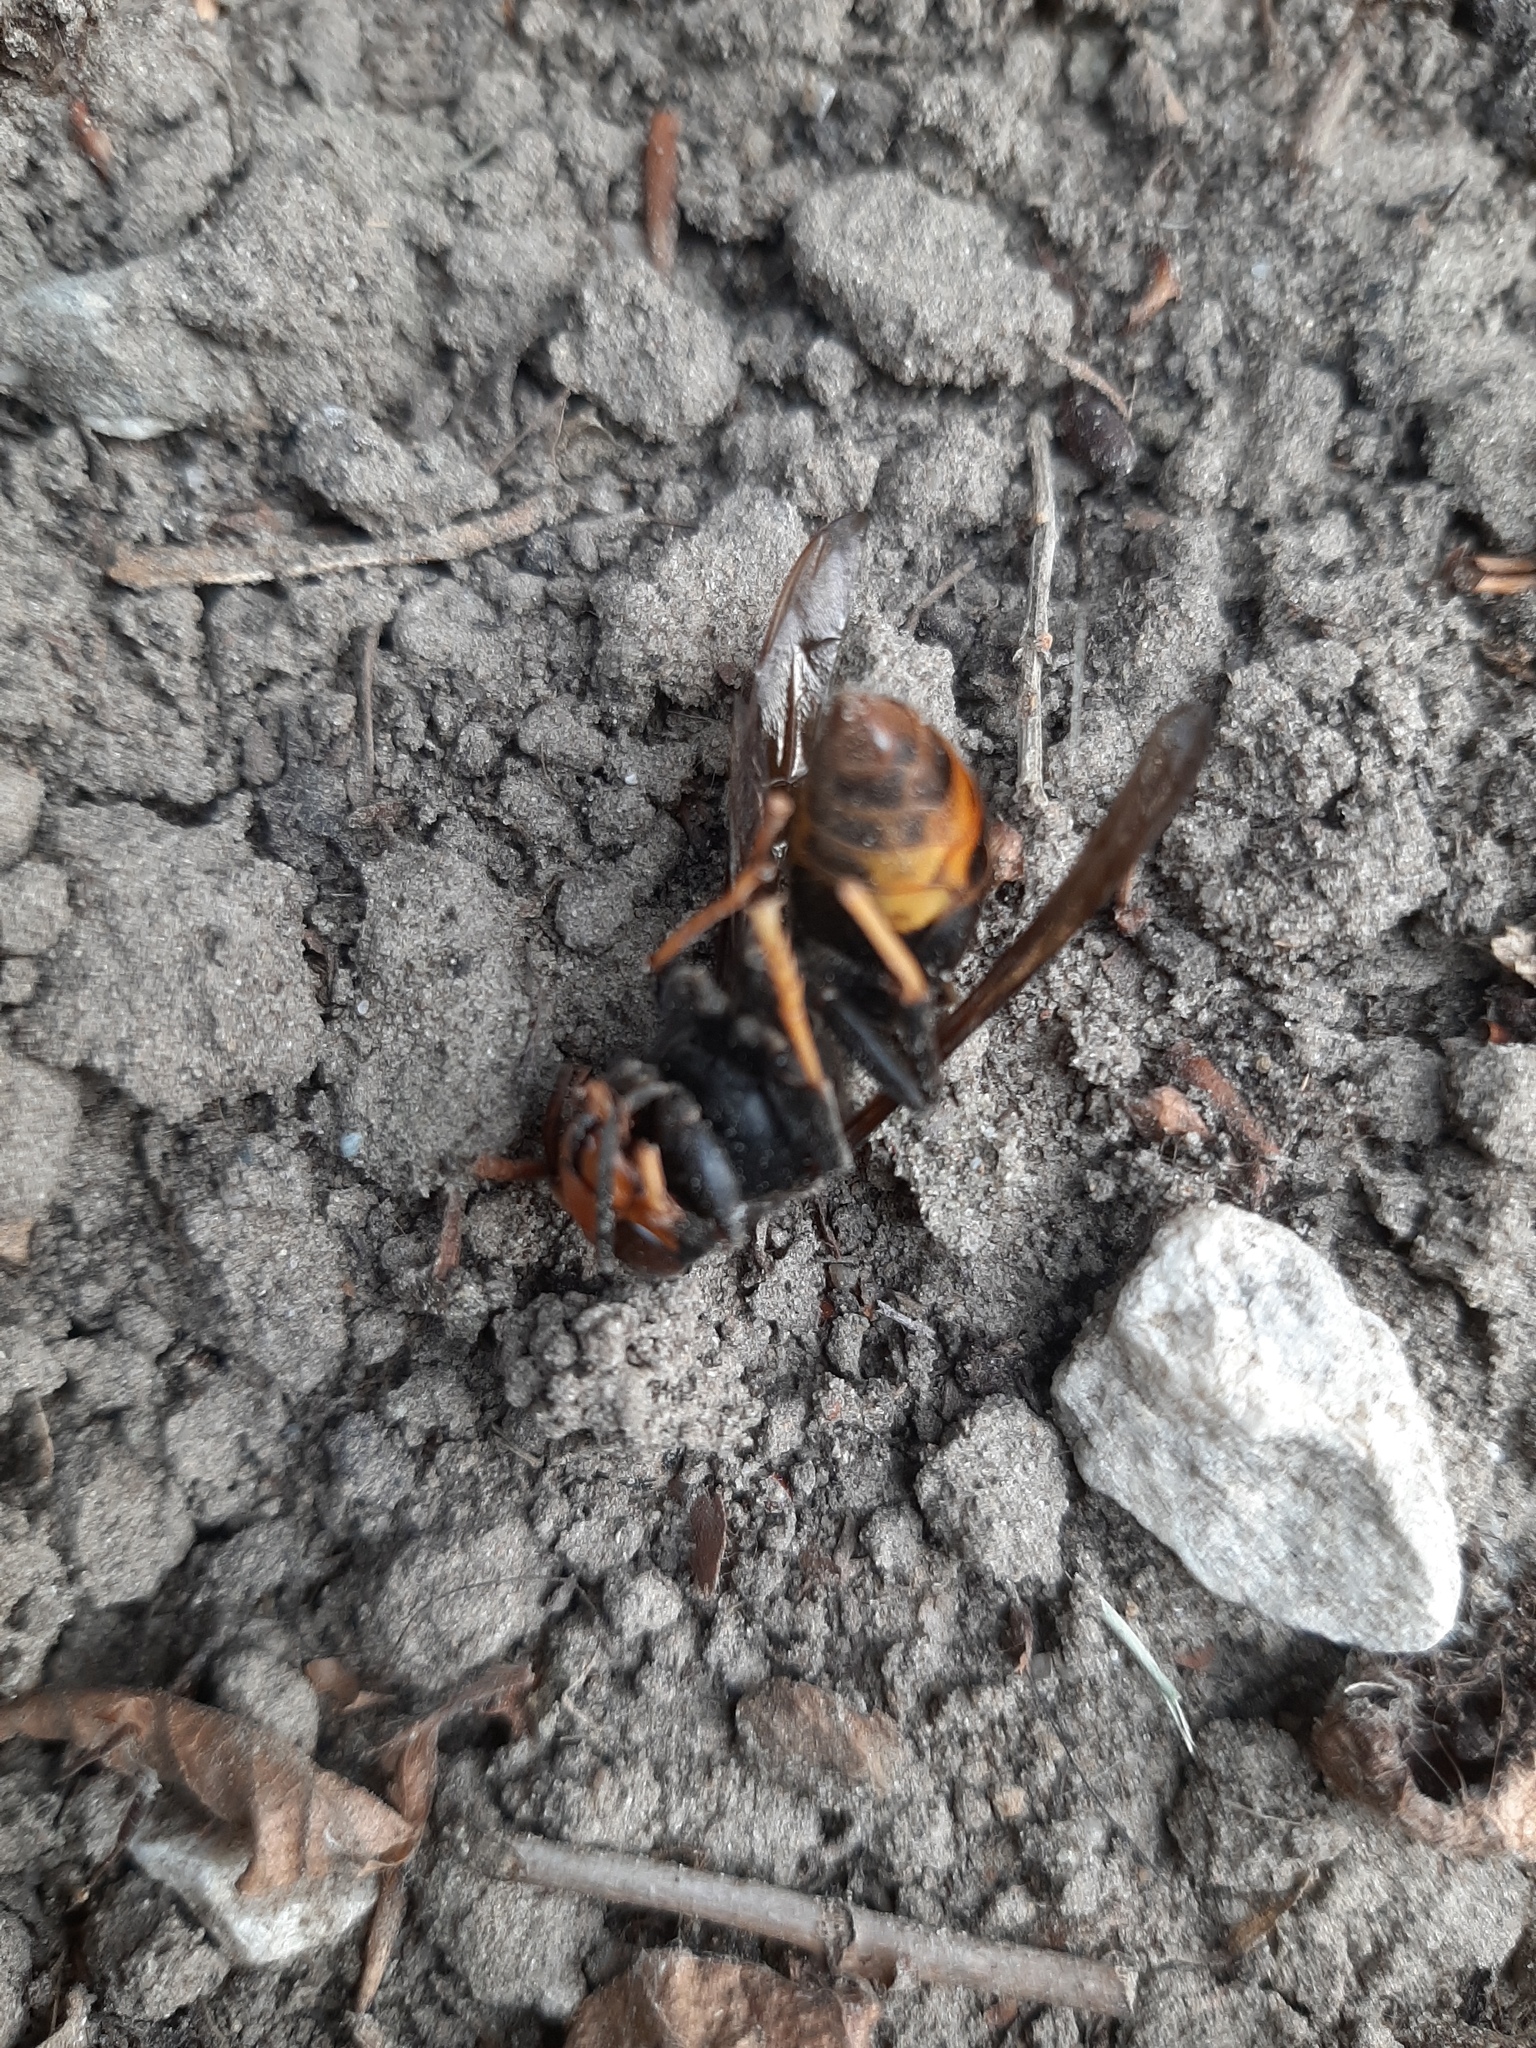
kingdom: Animalia
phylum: Arthropoda
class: Insecta
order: Hymenoptera
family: Vespidae
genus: Vespa
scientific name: Vespa velutina
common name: Asian hornet
